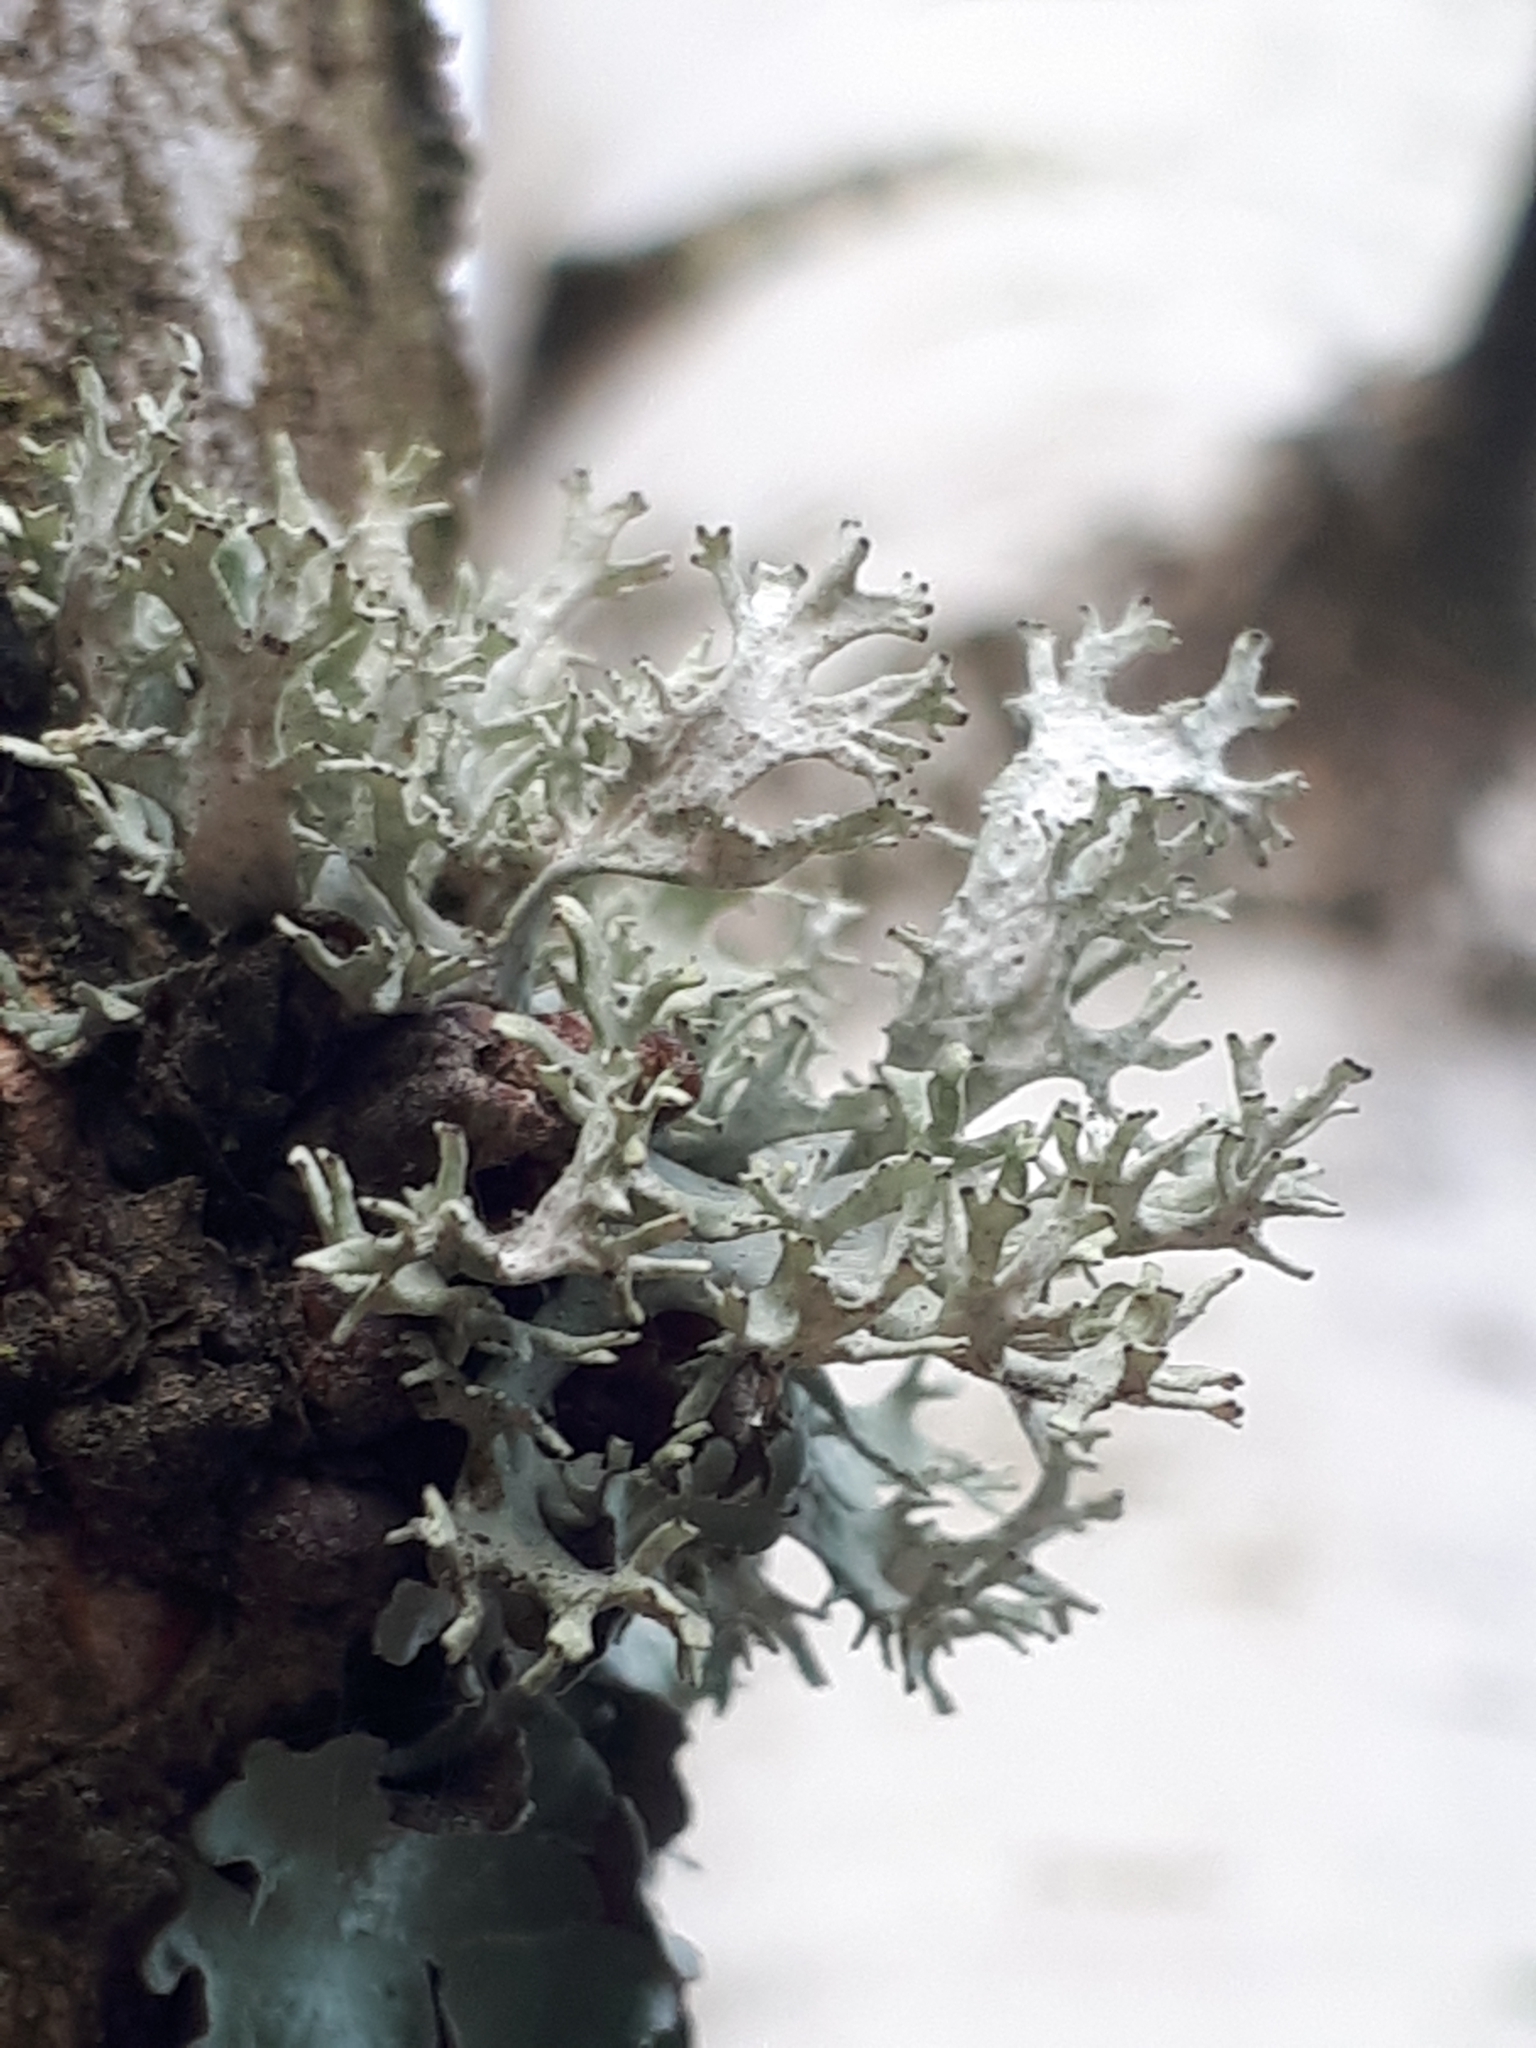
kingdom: Fungi
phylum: Ascomycota
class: Lecanoromycetes
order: Lecanorales
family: Parmeliaceae
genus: Evernia
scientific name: Evernia prunastri
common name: Oak moss
